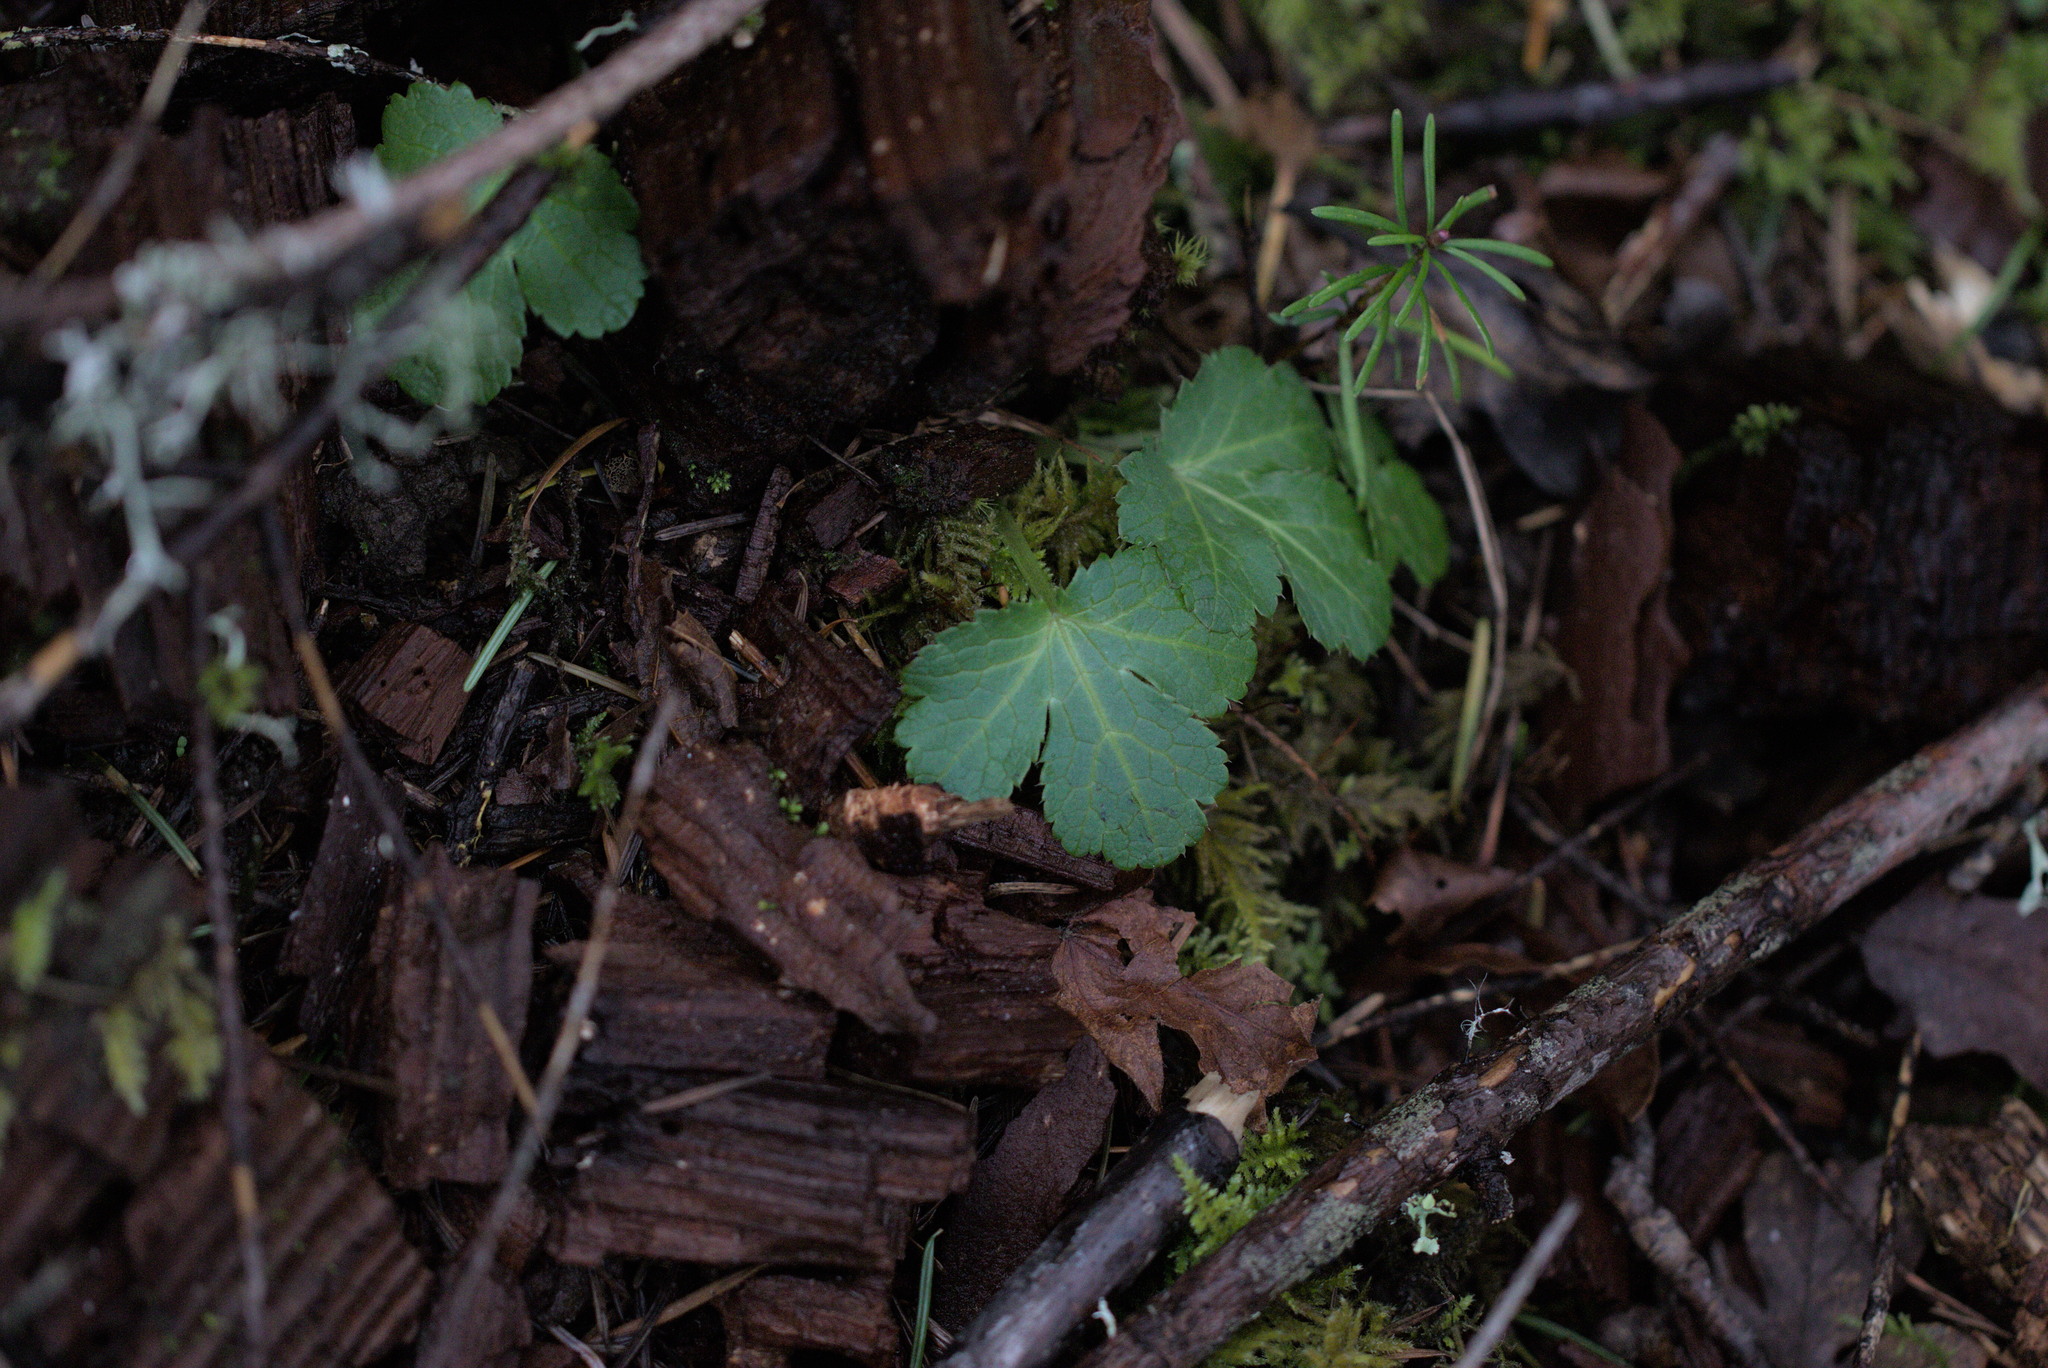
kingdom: Plantae
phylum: Tracheophyta
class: Magnoliopsida
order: Apiales
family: Apiaceae
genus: Sanicula
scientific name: Sanicula crassicaulis
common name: Western snakeroot
